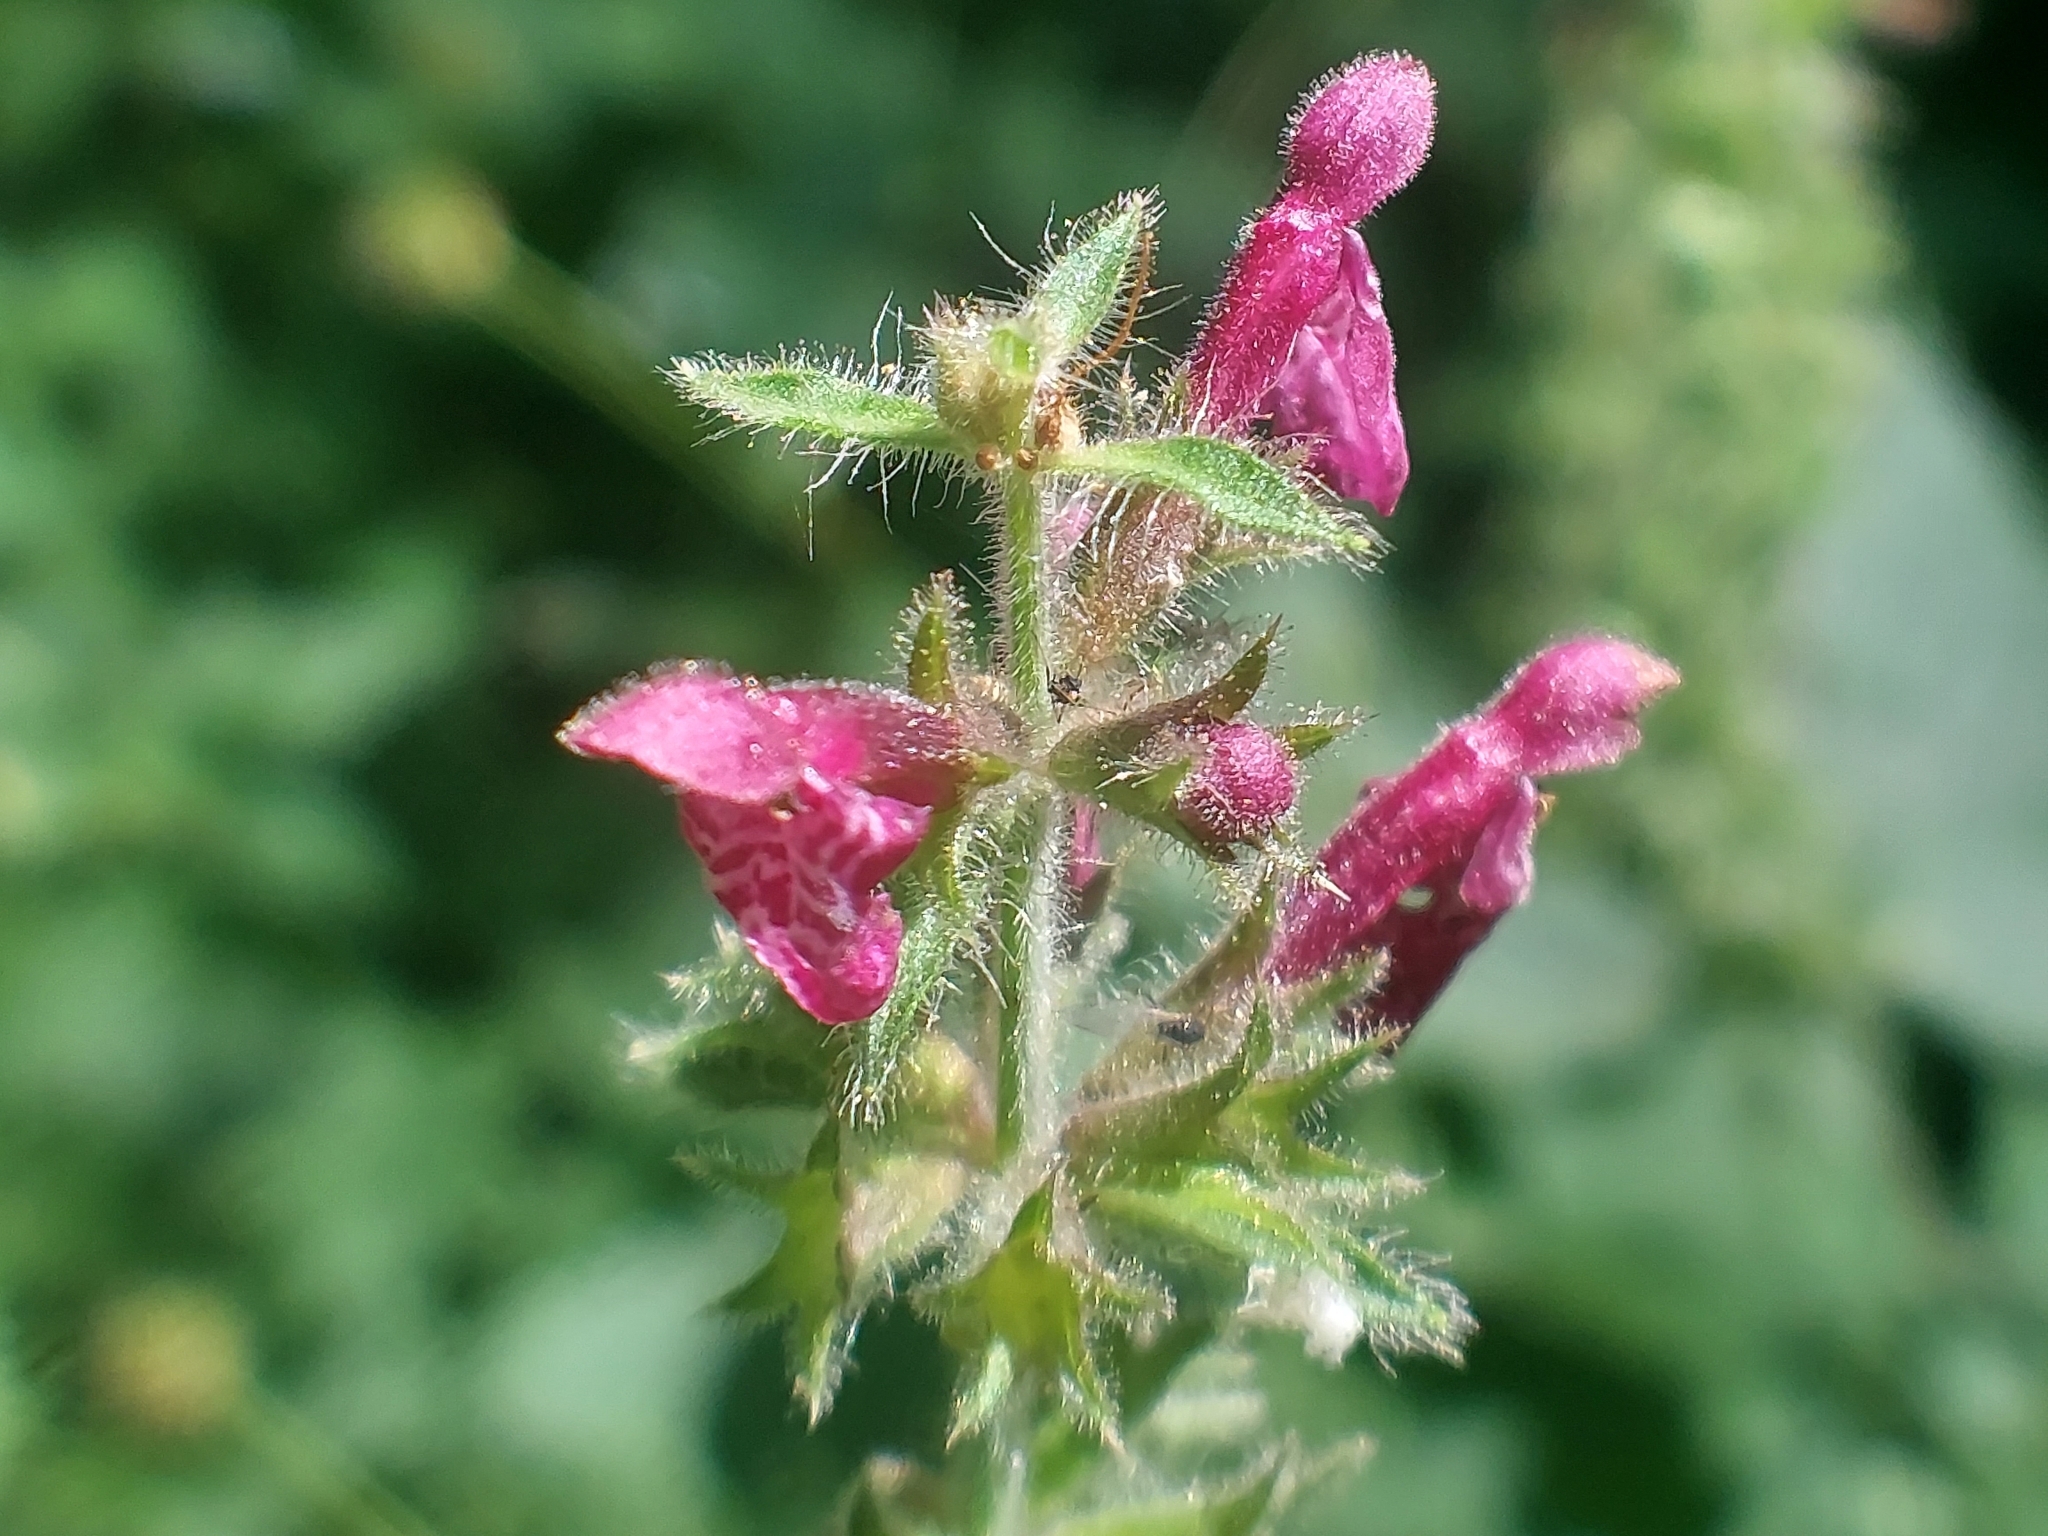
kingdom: Plantae
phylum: Tracheophyta
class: Magnoliopsida
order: Lamiales
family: Lamiaceae
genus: Stachys
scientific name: Stachys sylvatica
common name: Hedge woundwort
